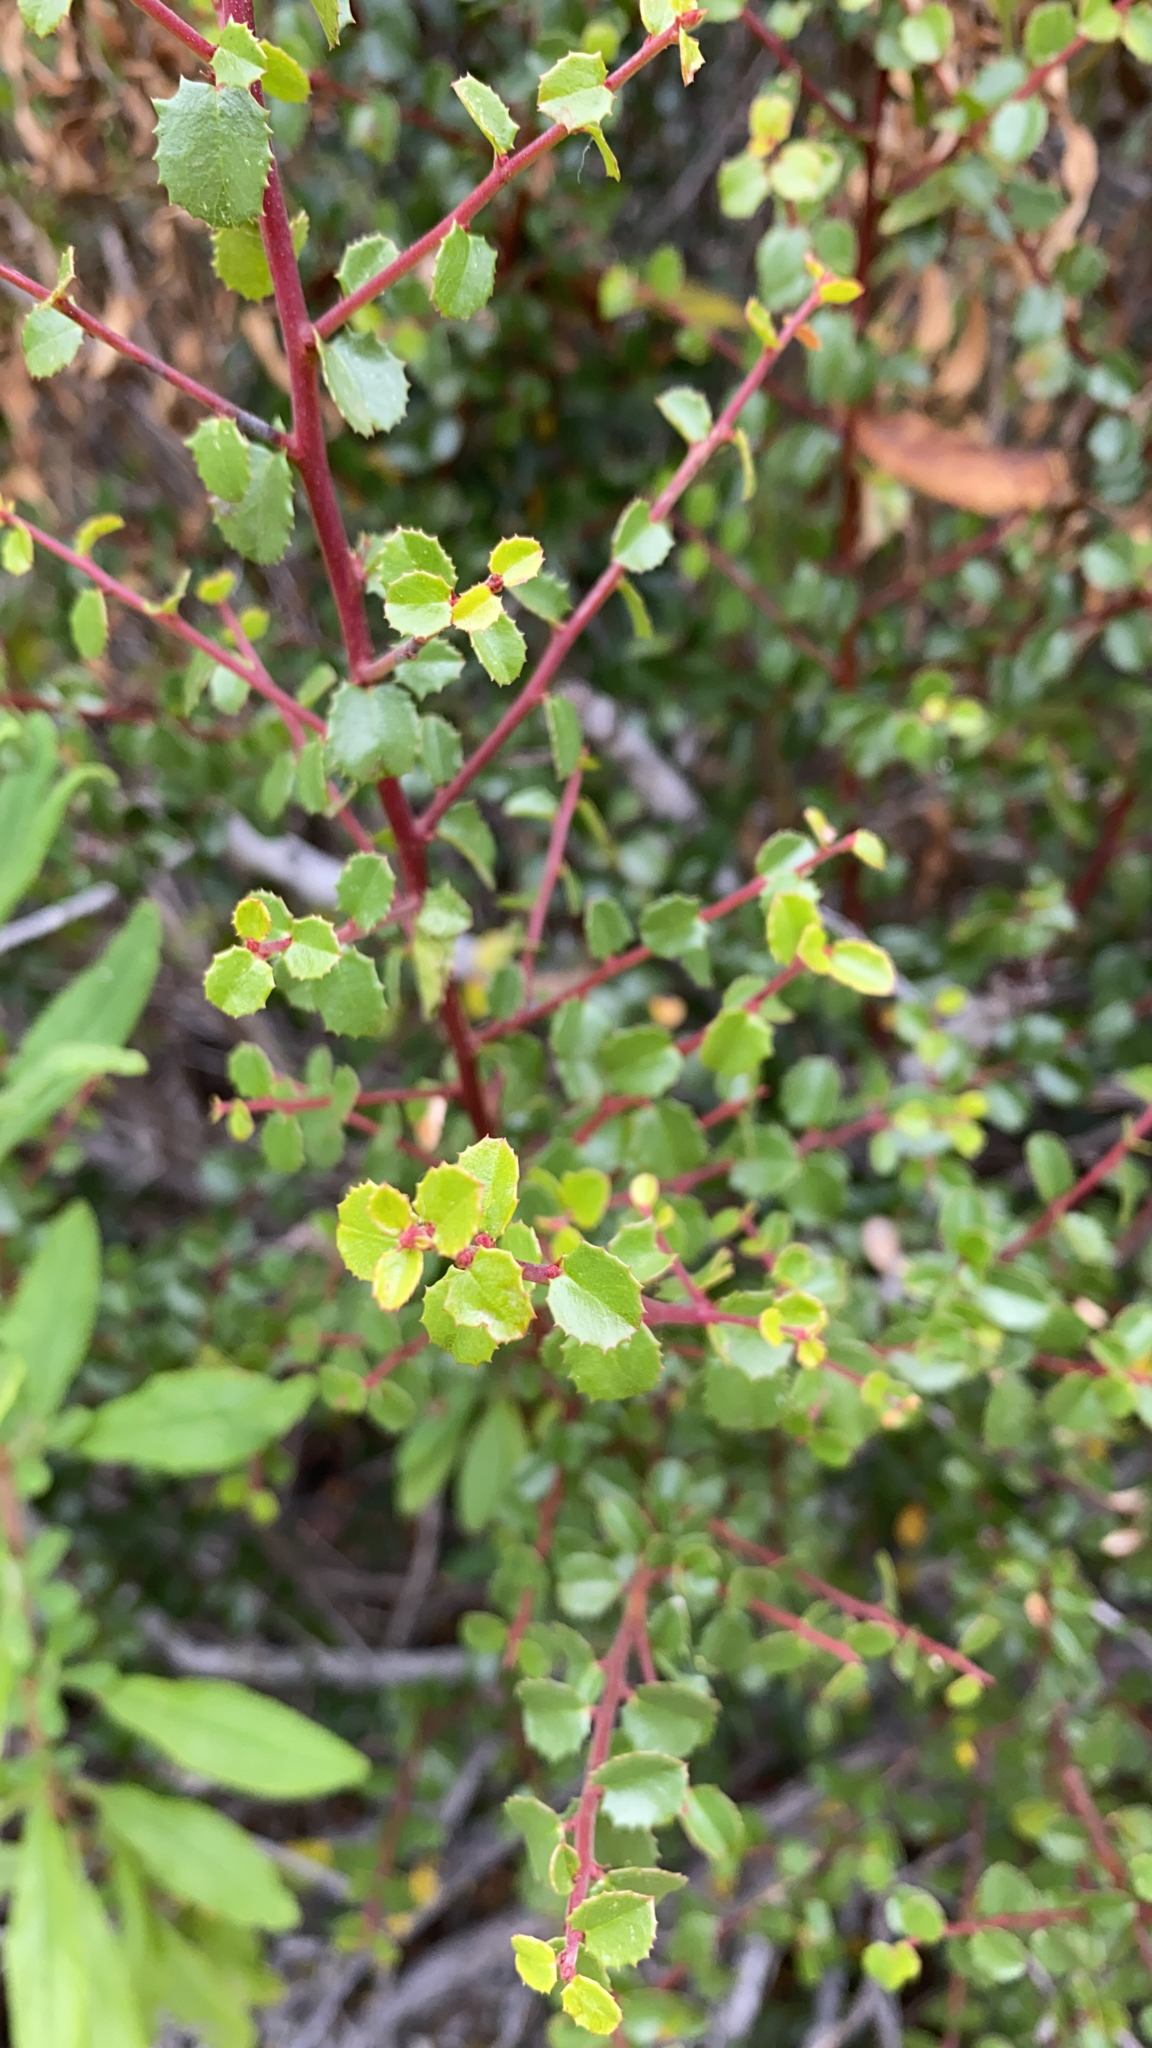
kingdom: Plantae
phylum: Tracheophyta
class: Magnoliopsida
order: Rosales
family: Rhamnaceae
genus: Endotropis
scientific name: Endotropis crocea
